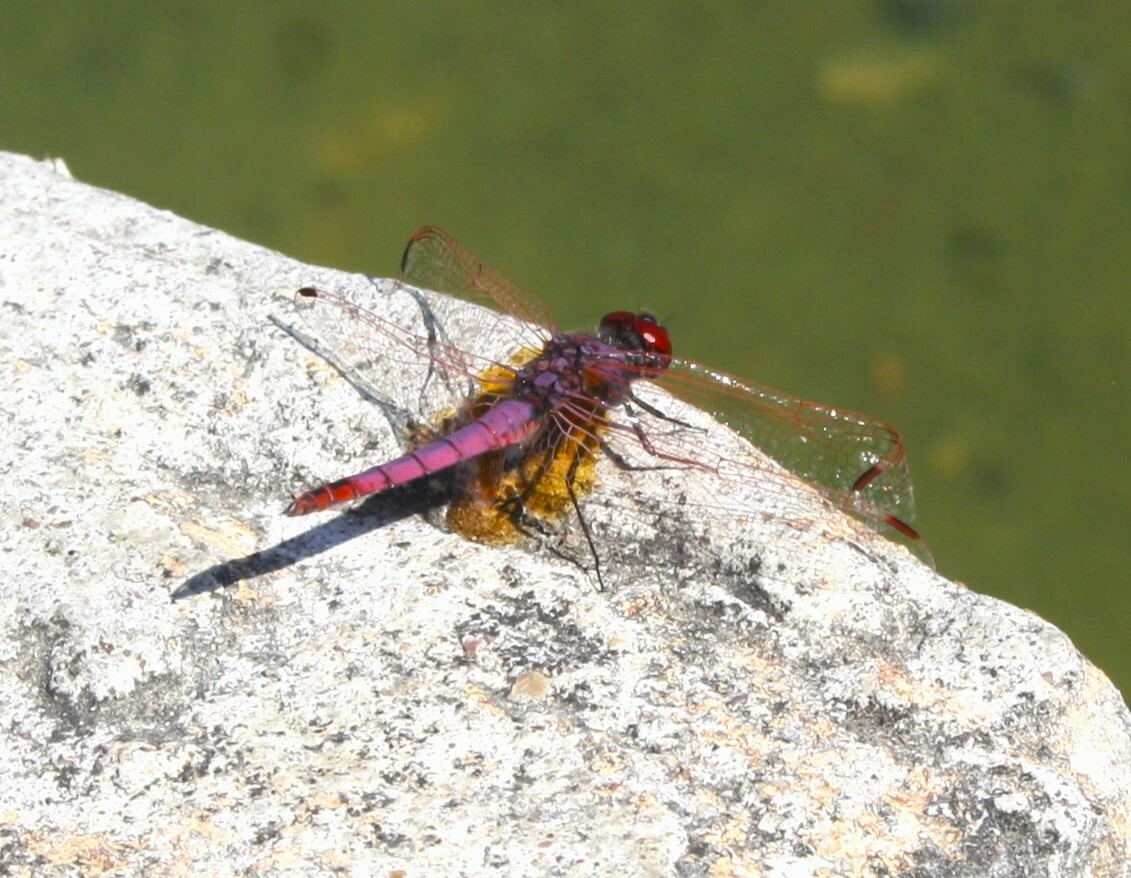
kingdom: Animalia
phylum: Arthropoda
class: Insecta
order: Odonata
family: Libellulidae
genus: Trithemis
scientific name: Trithemis annulata
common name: Violet dropwing
